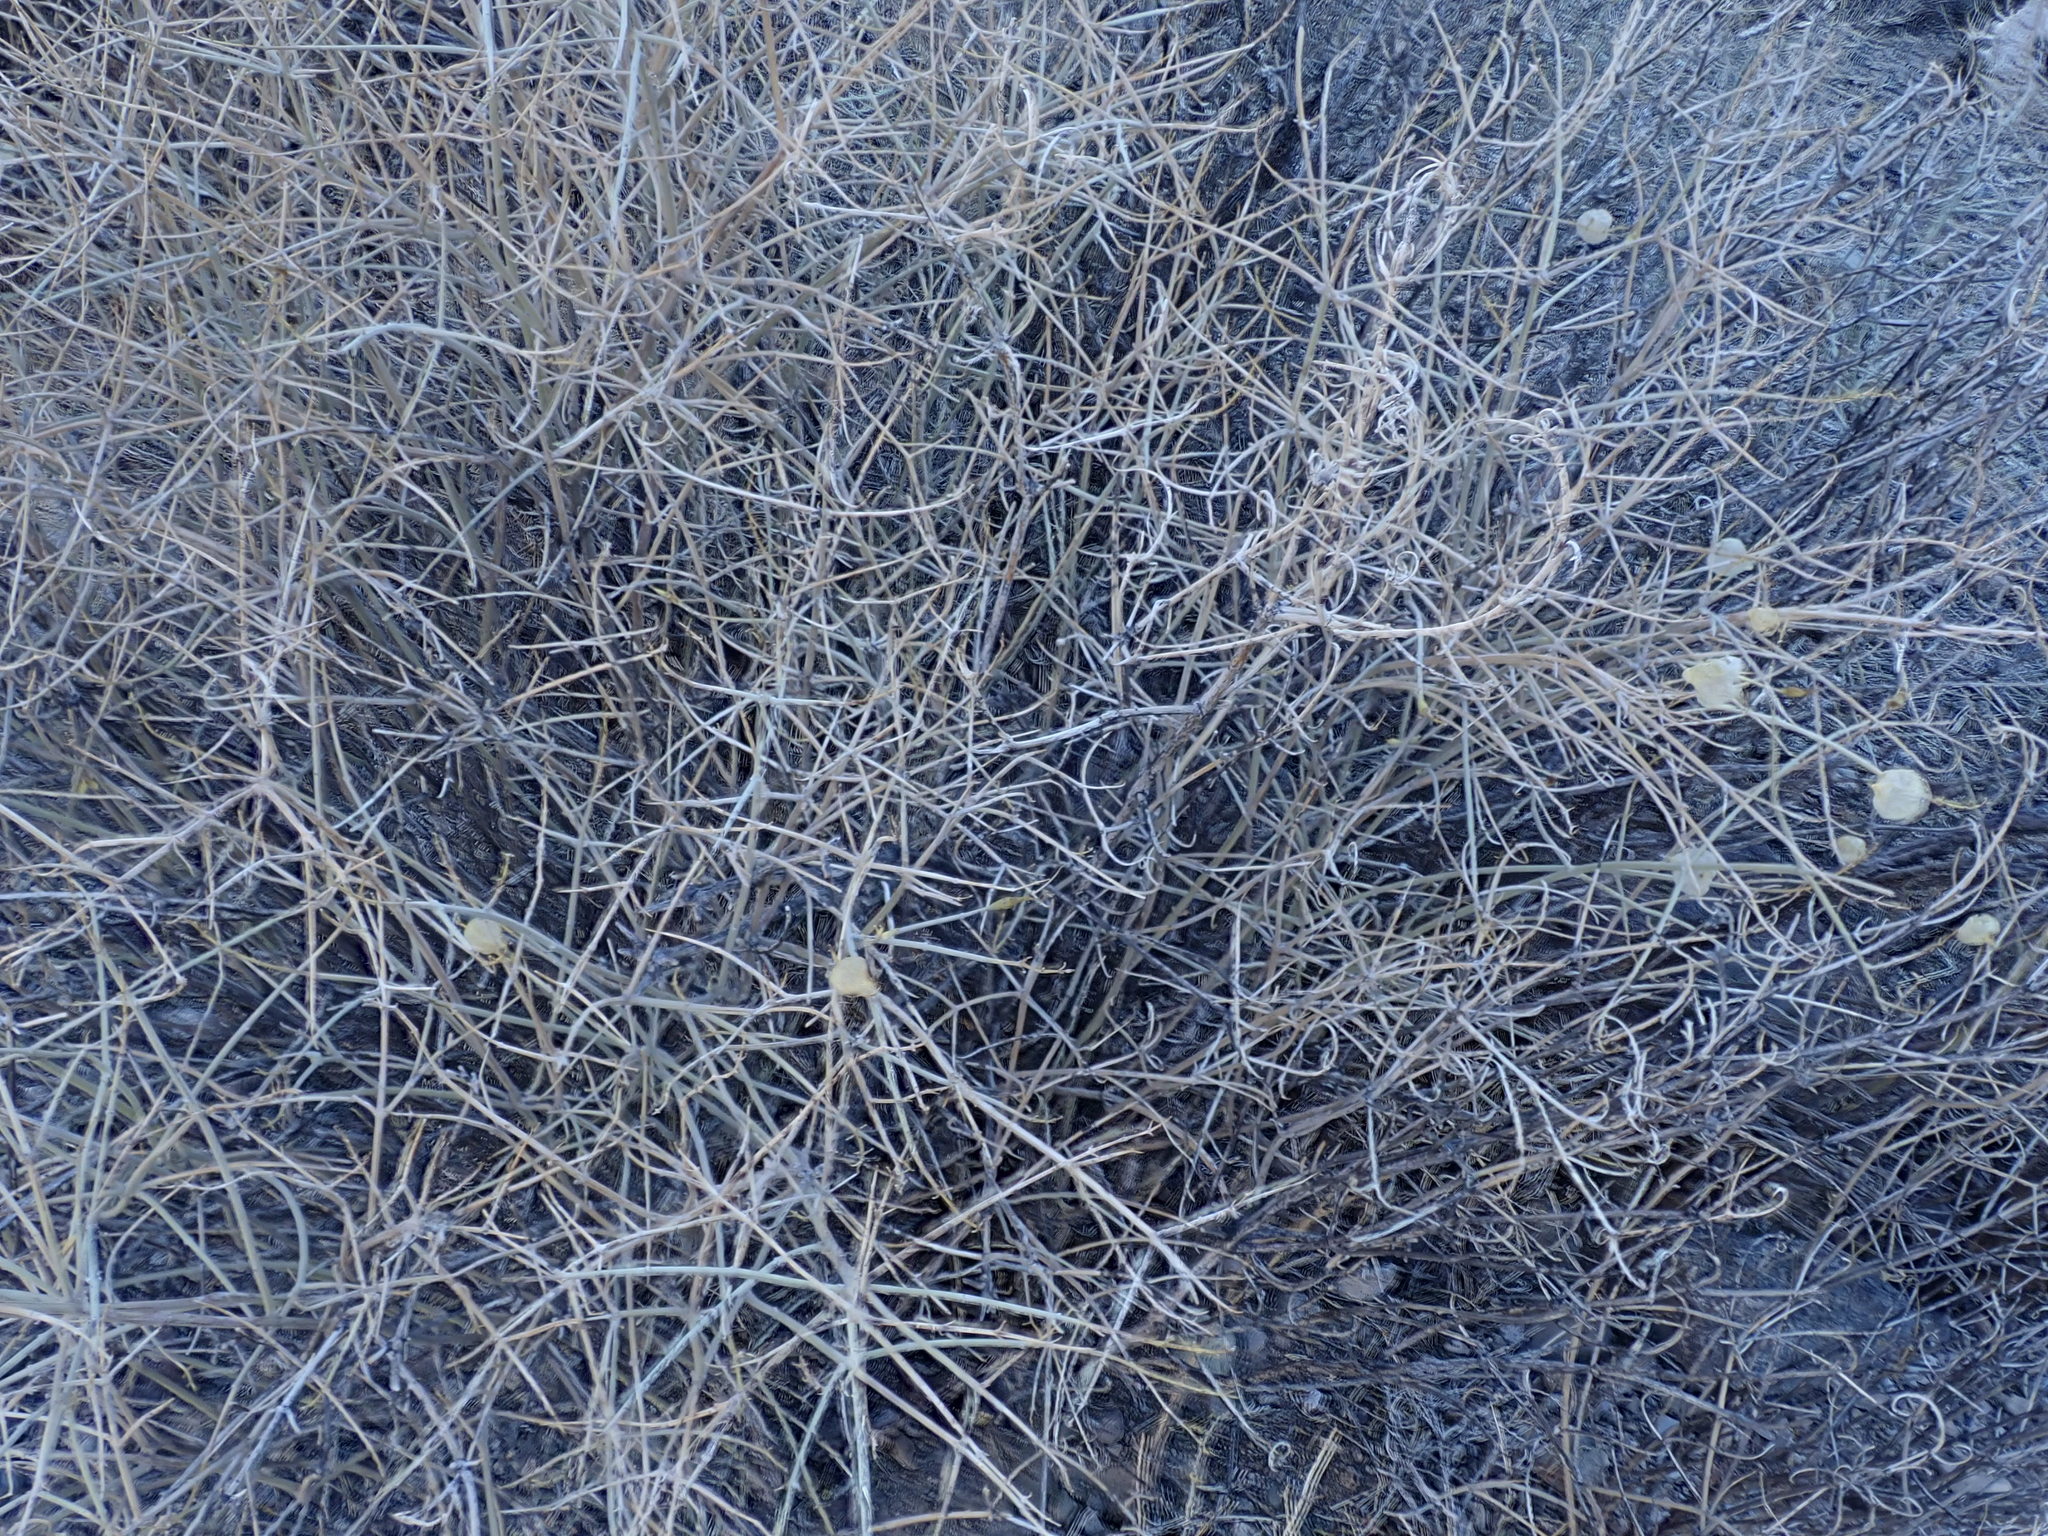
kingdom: Plantae
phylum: Tracheophyta
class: Magnoliopsida
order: Lamiales
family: Lamiaceae
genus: Scutellaria
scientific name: Scutellaria mexicana
